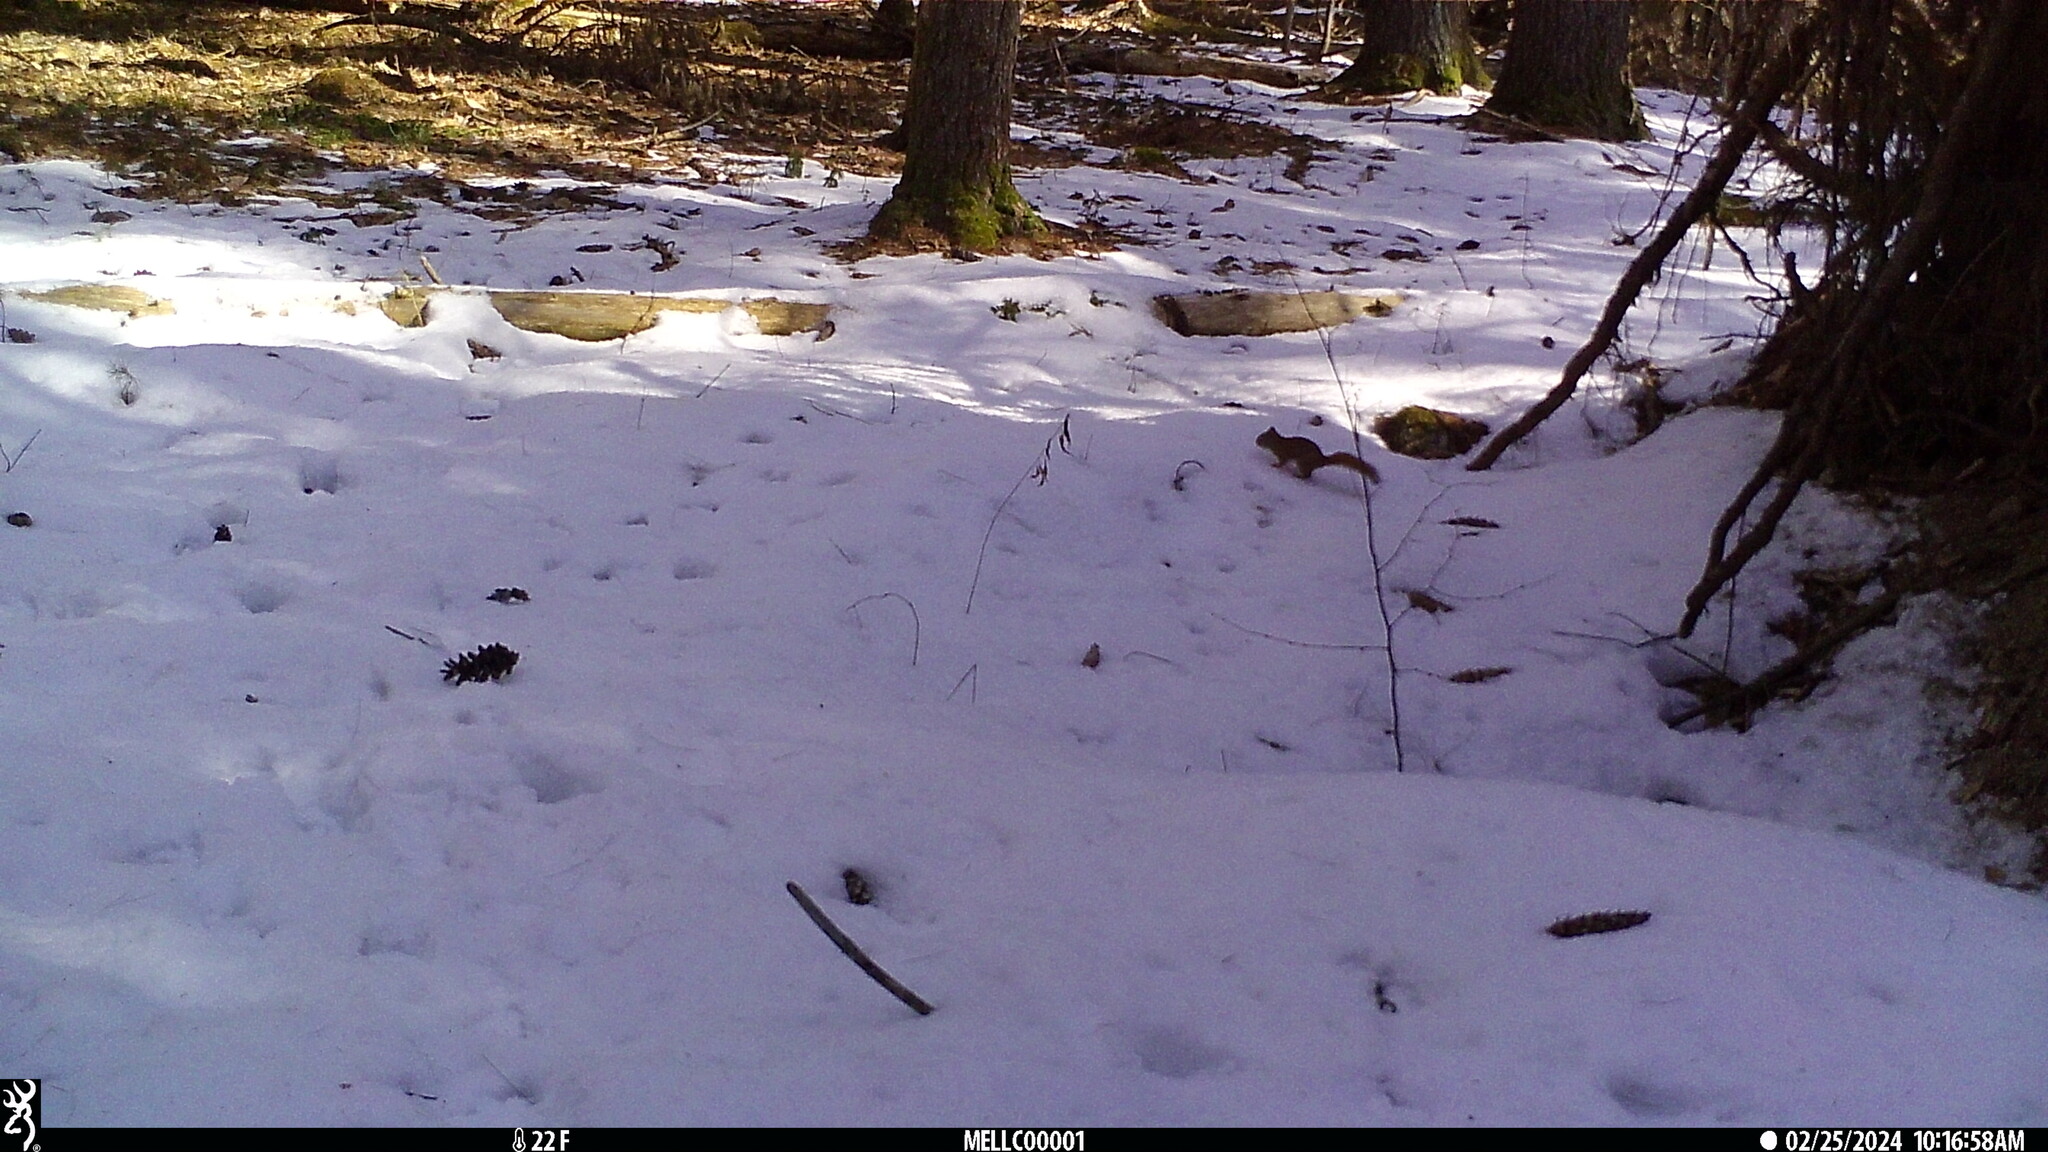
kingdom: Animalia
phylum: Chordata
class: Mammalia
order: Rodentia
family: Sciuridae
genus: Tamiasciurus
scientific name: Tamiasciurus hudsonicus
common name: Red squirrel
